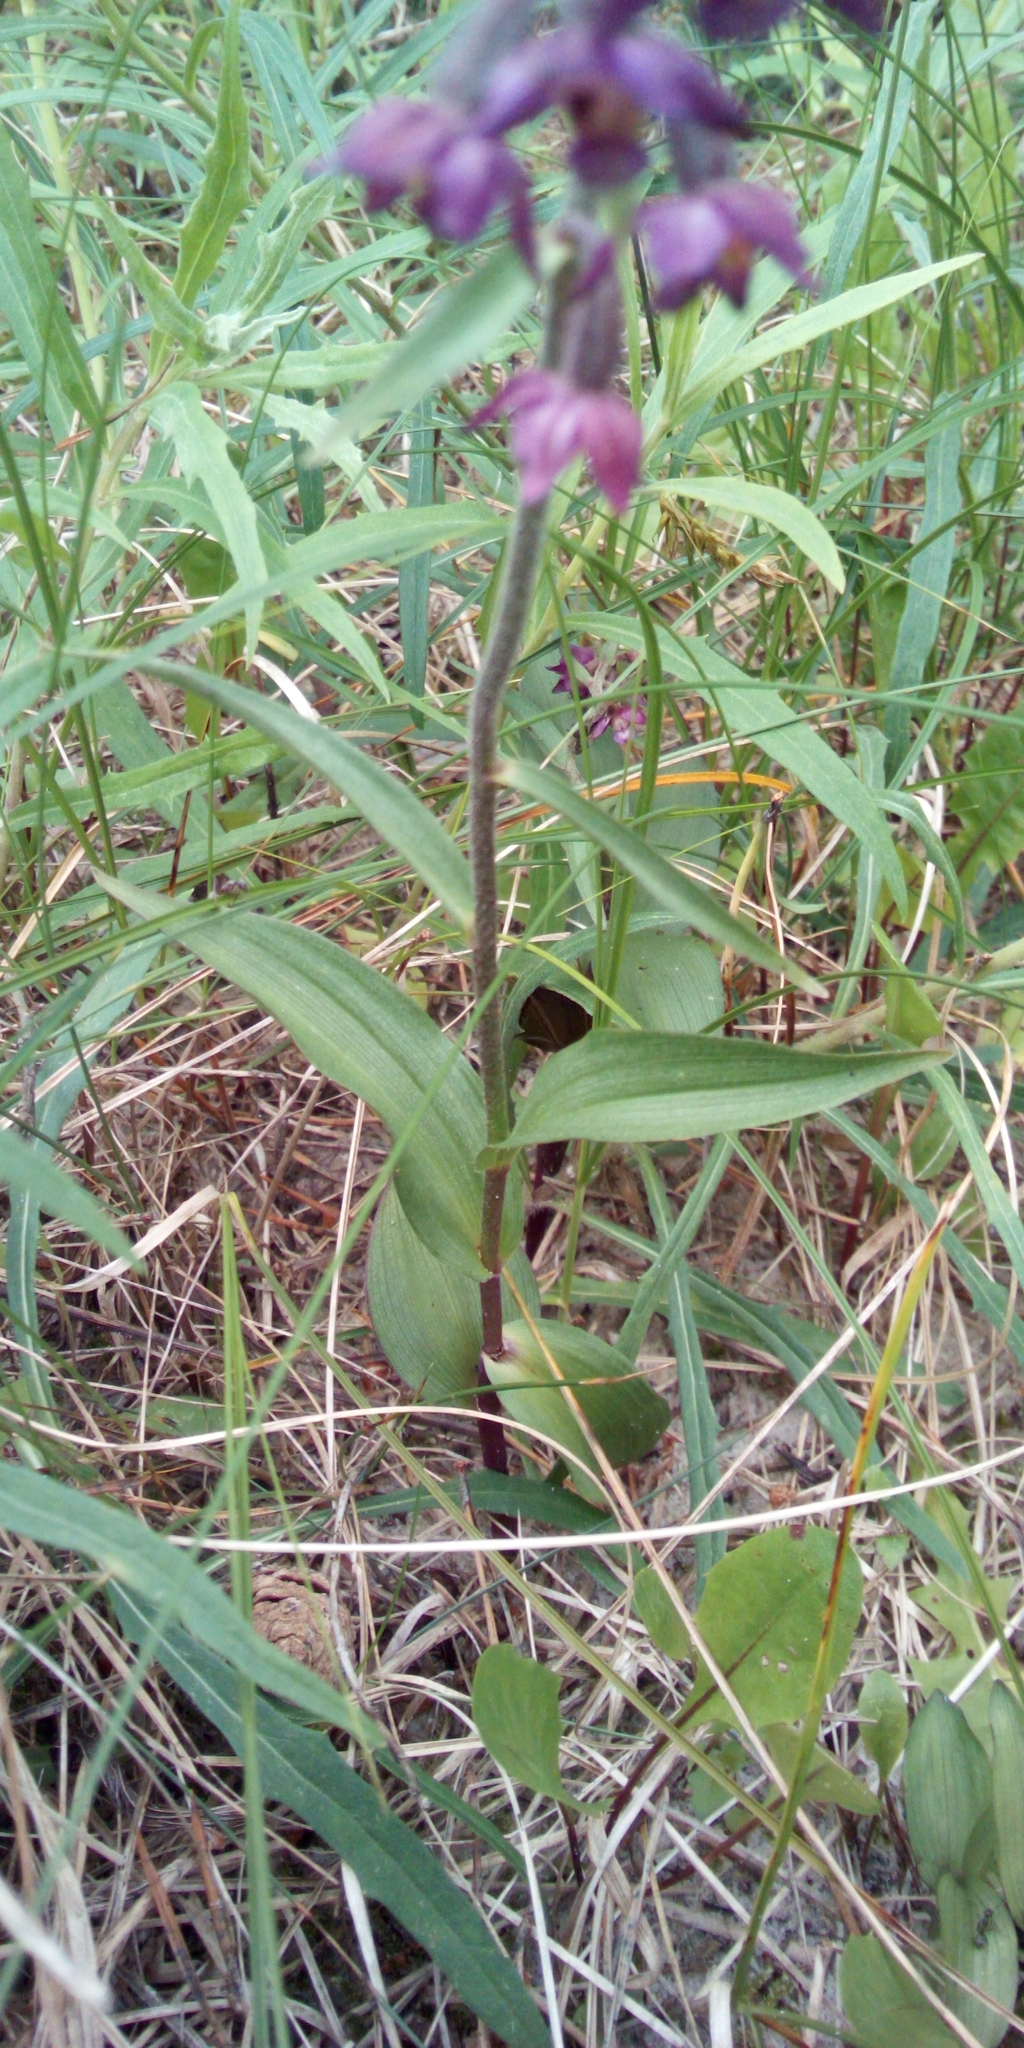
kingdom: Plantae
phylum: Tracheophyta
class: Liliopsida
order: Asparagales
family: Orchidaceae
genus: Epipactis
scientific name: Epipactis atrorubens
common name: Dark-red helleborine
